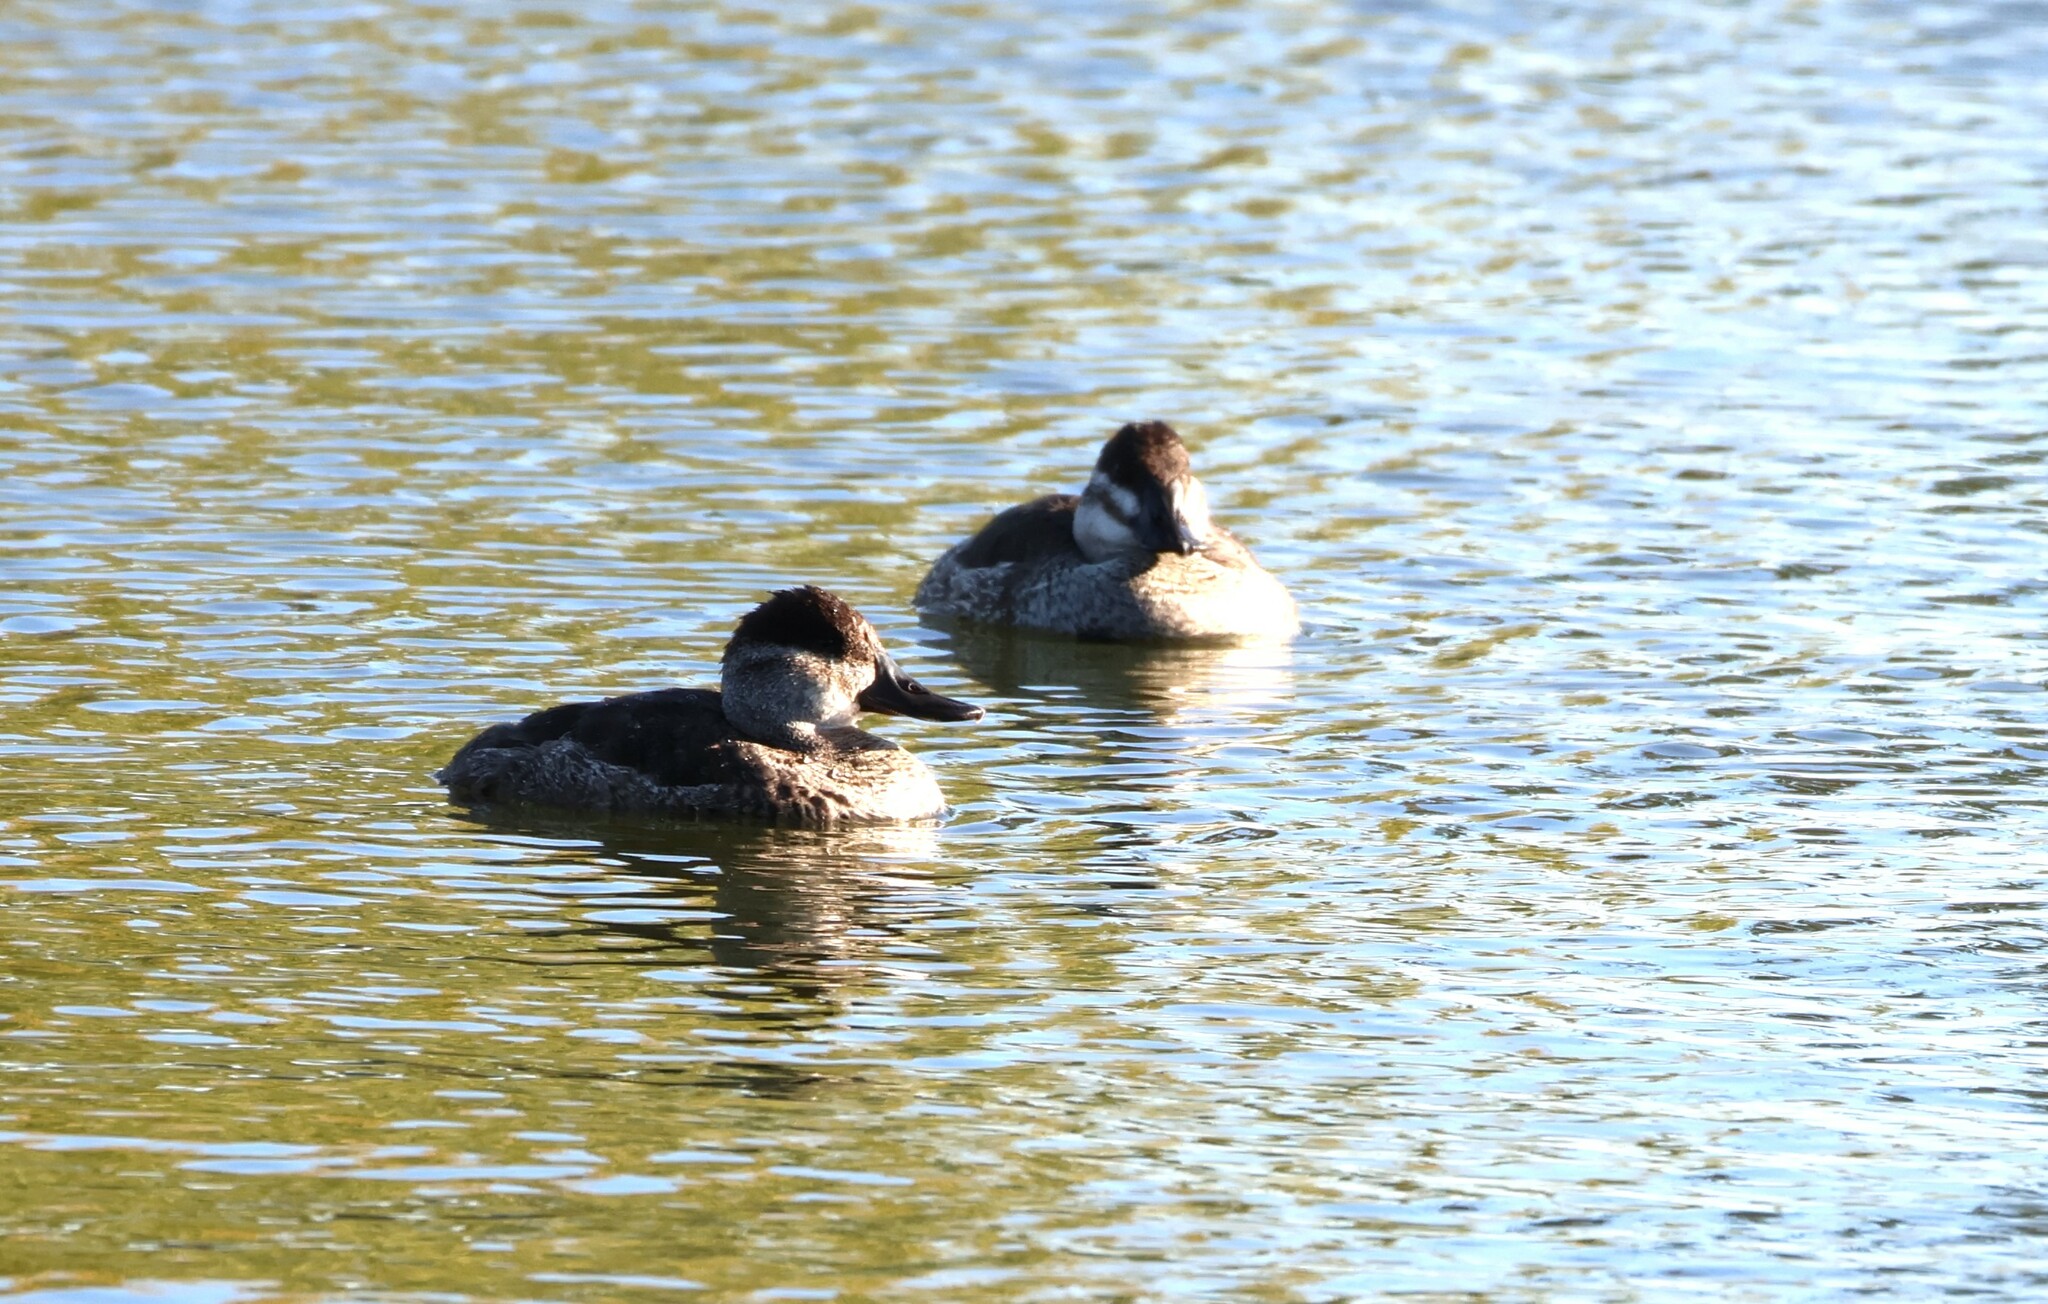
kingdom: Animalia
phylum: Chordata
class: Aves
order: Anseriformes
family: Anatidae
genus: Oxyura
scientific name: Oxyura jamaicensis
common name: Ruddy duck
